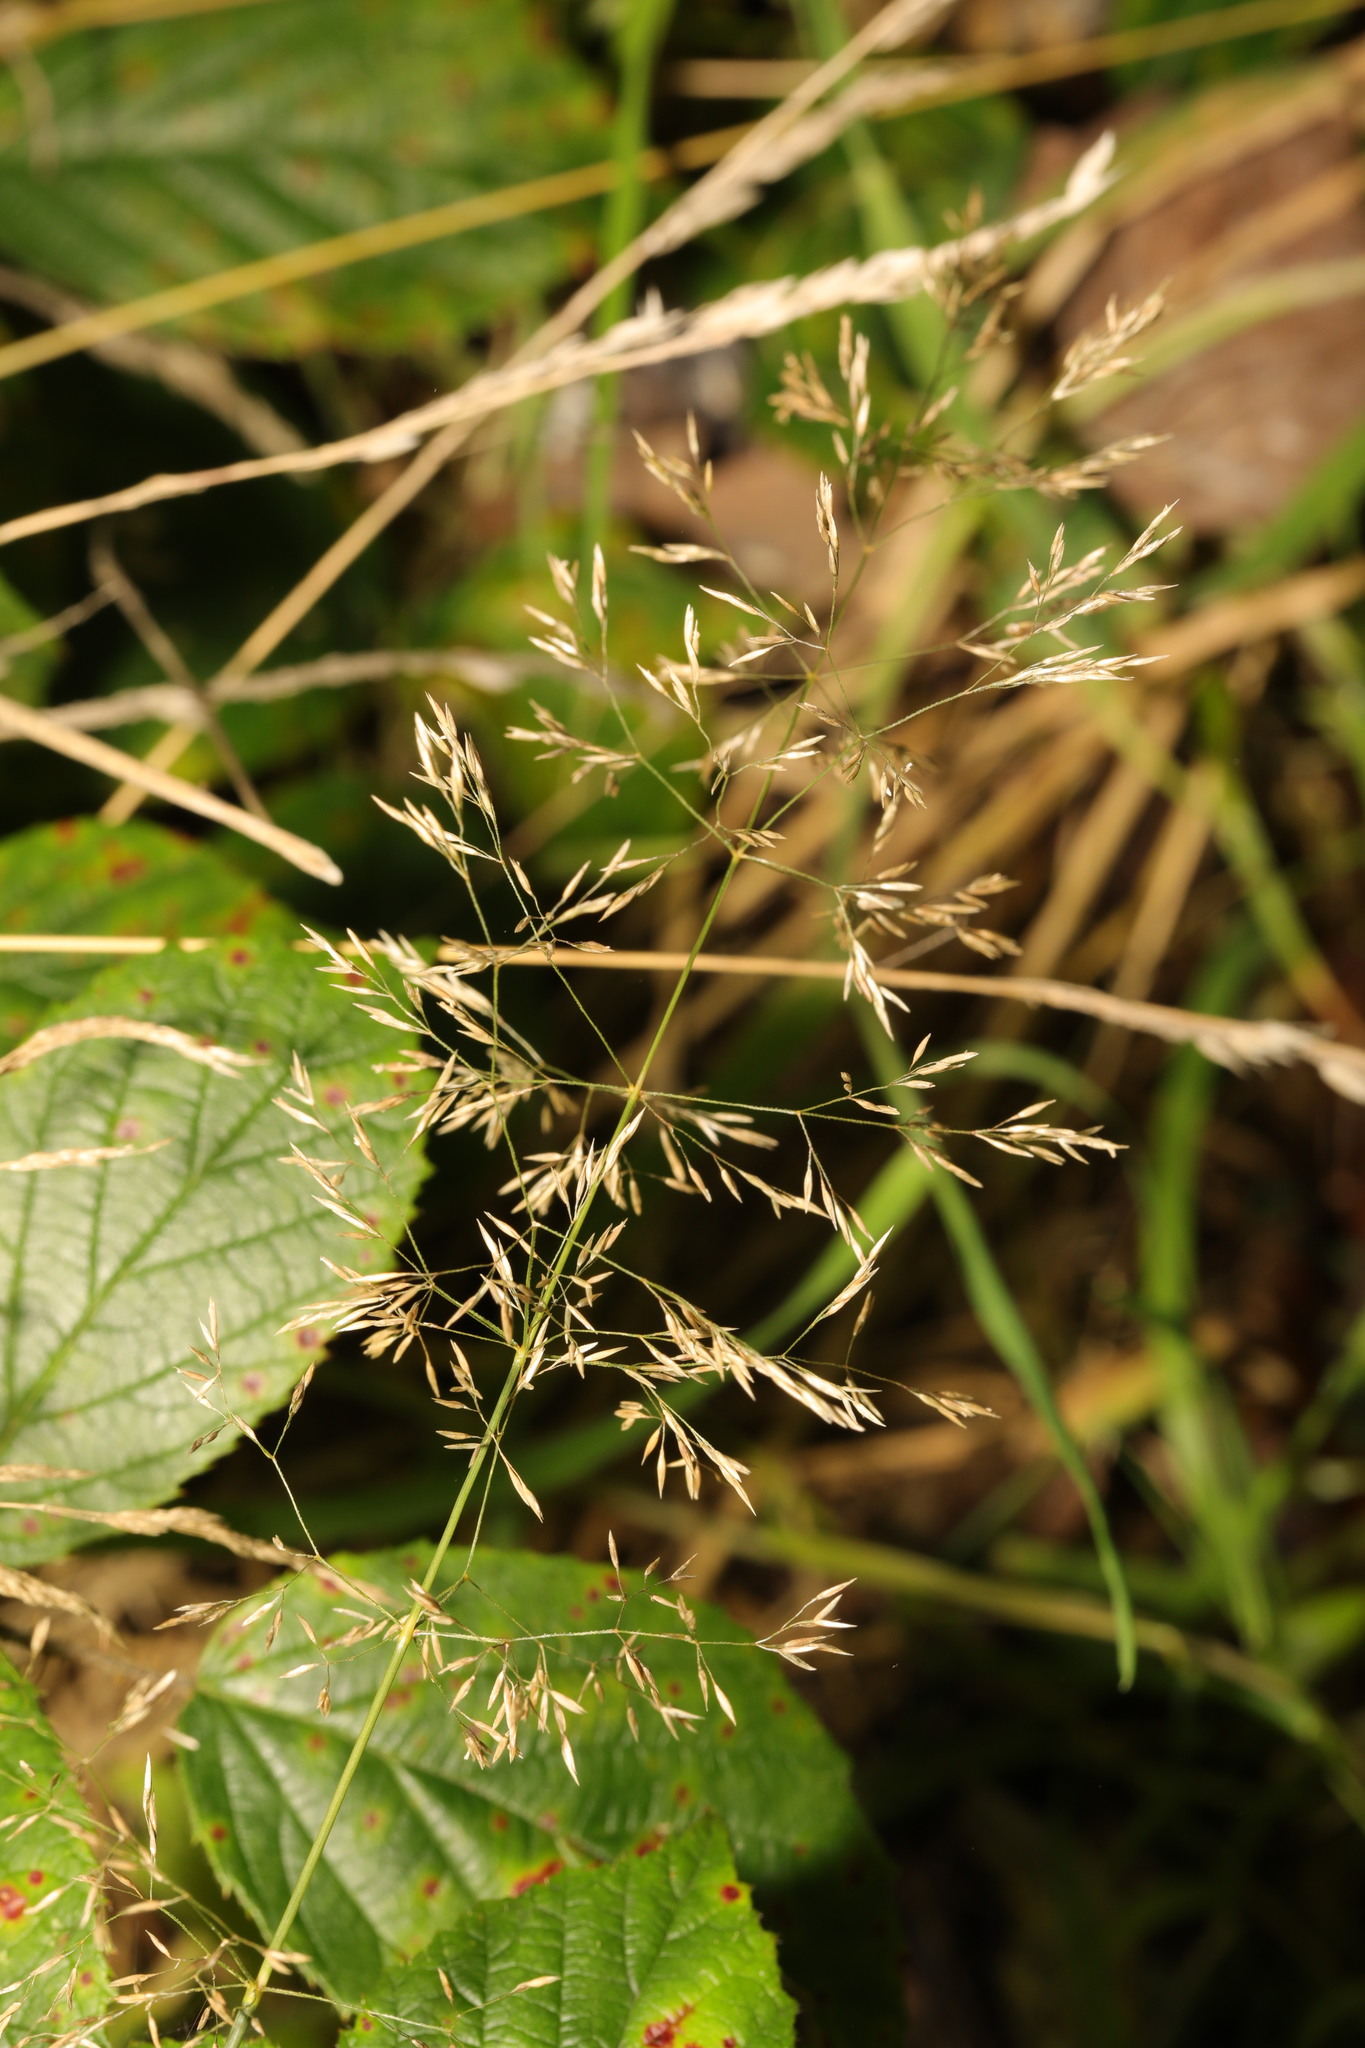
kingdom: Plantae
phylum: Tracheophyta
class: Liliopsida
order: Poales
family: Poaceae
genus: Agrostis
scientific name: Agrostis capillaris
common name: Colonial bentgrass
